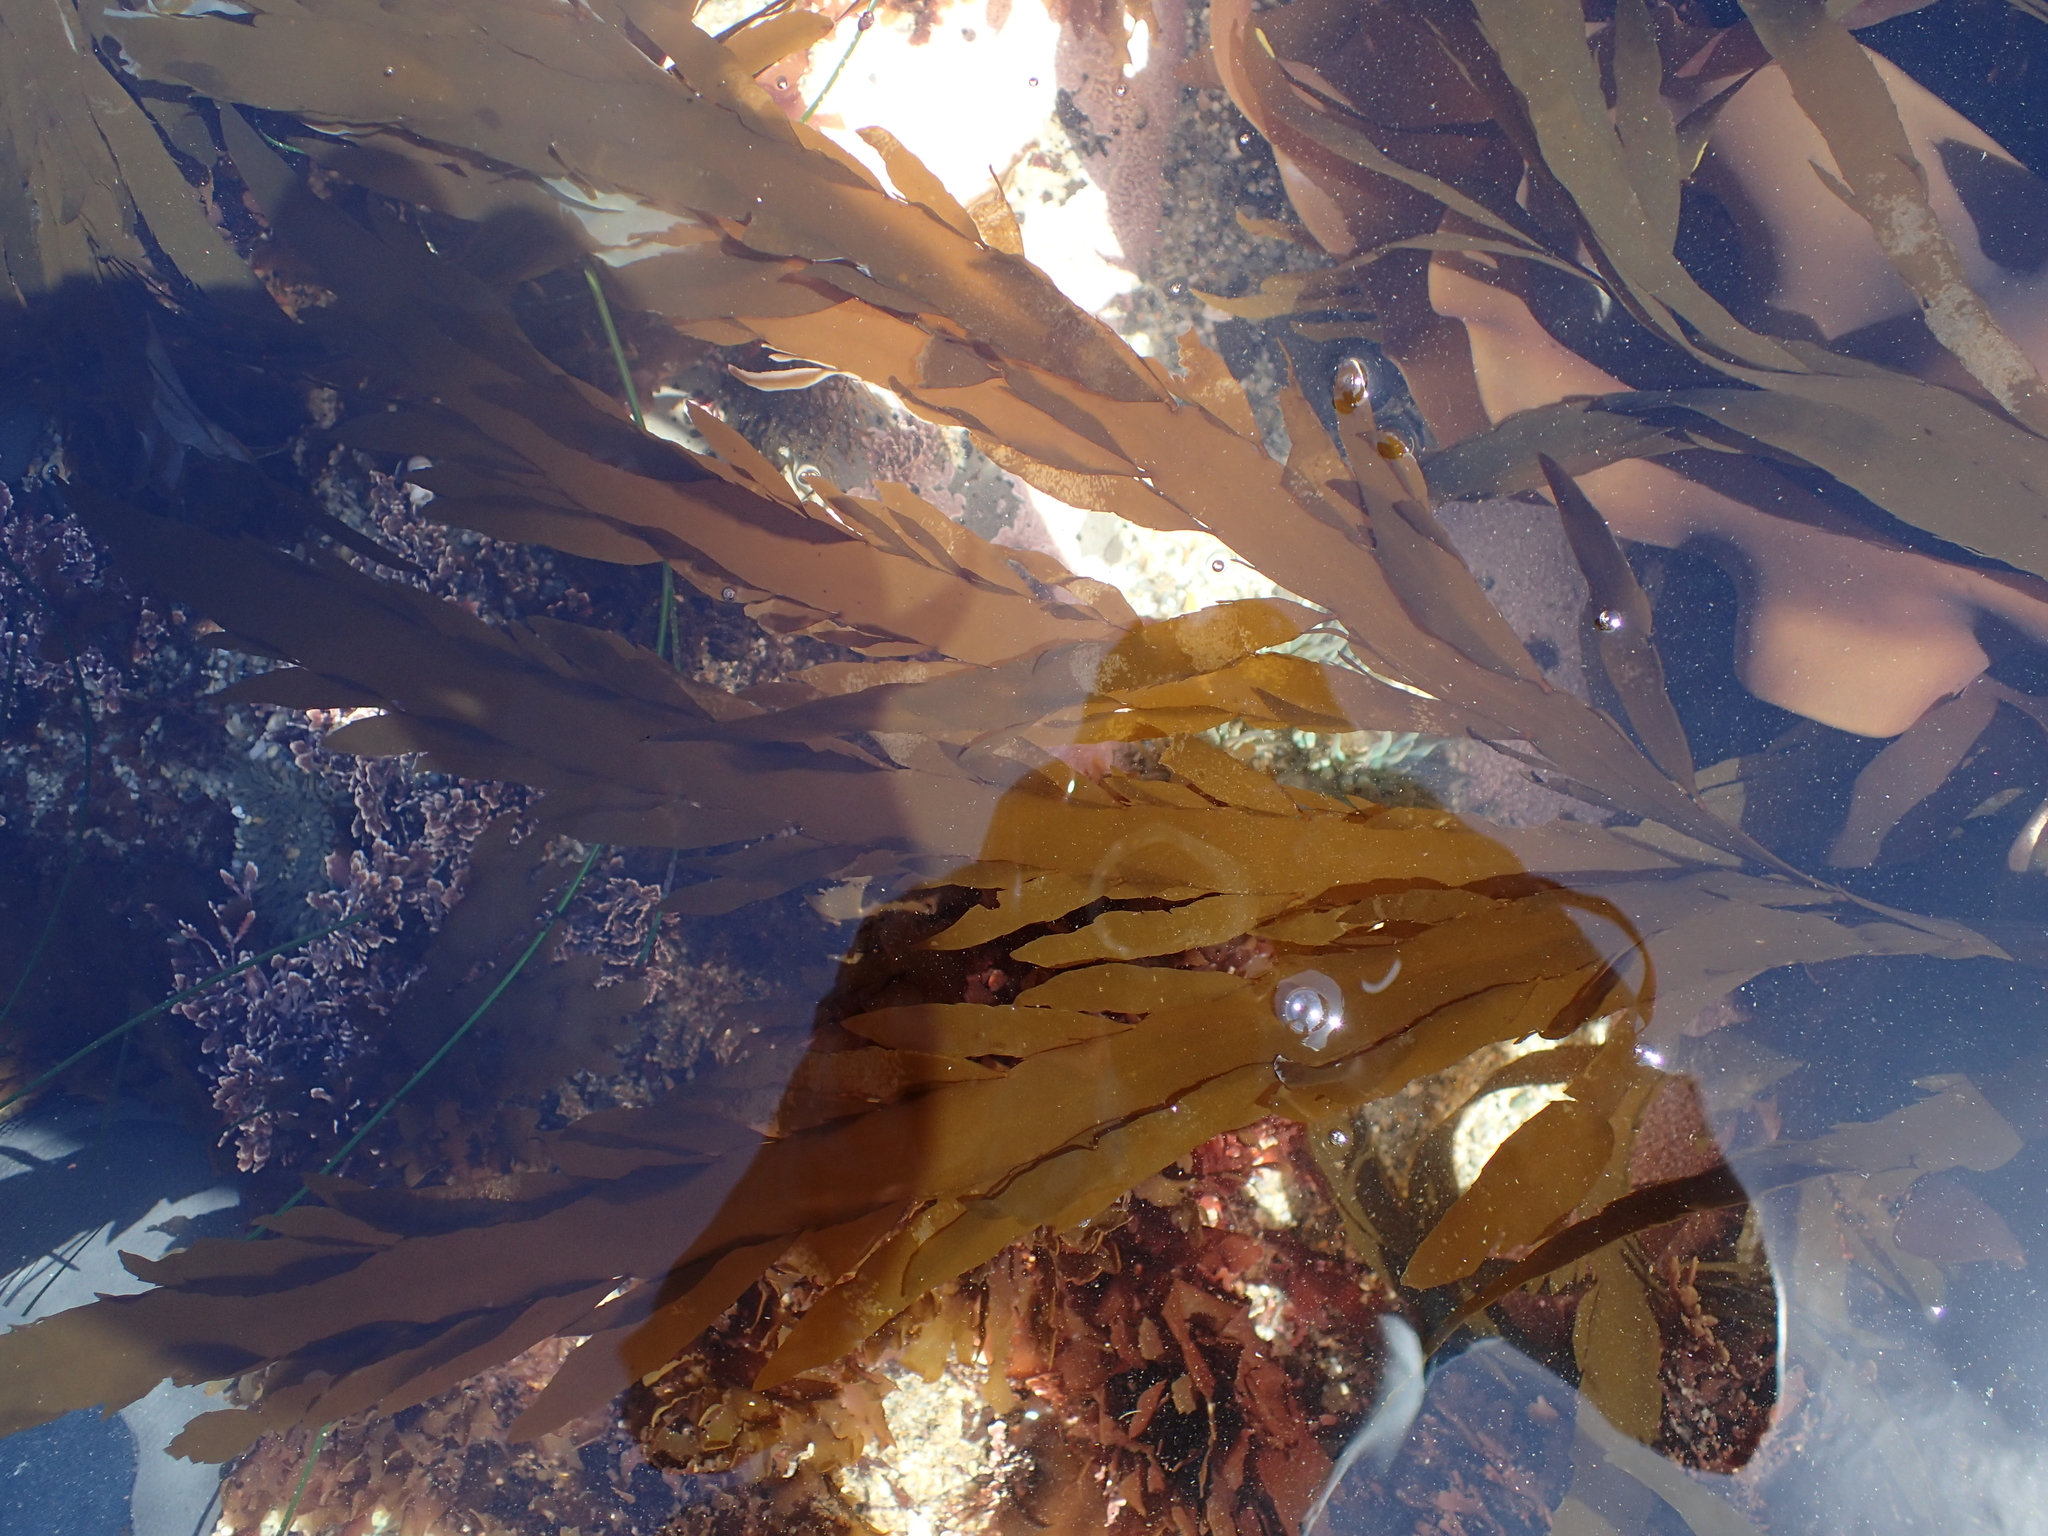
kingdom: Chromista
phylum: Ochrophyta
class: Phaeophyceae
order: Desmarestiales
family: Desmarestiaceae
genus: Desmarestia
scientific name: Desmarestia ligulata
